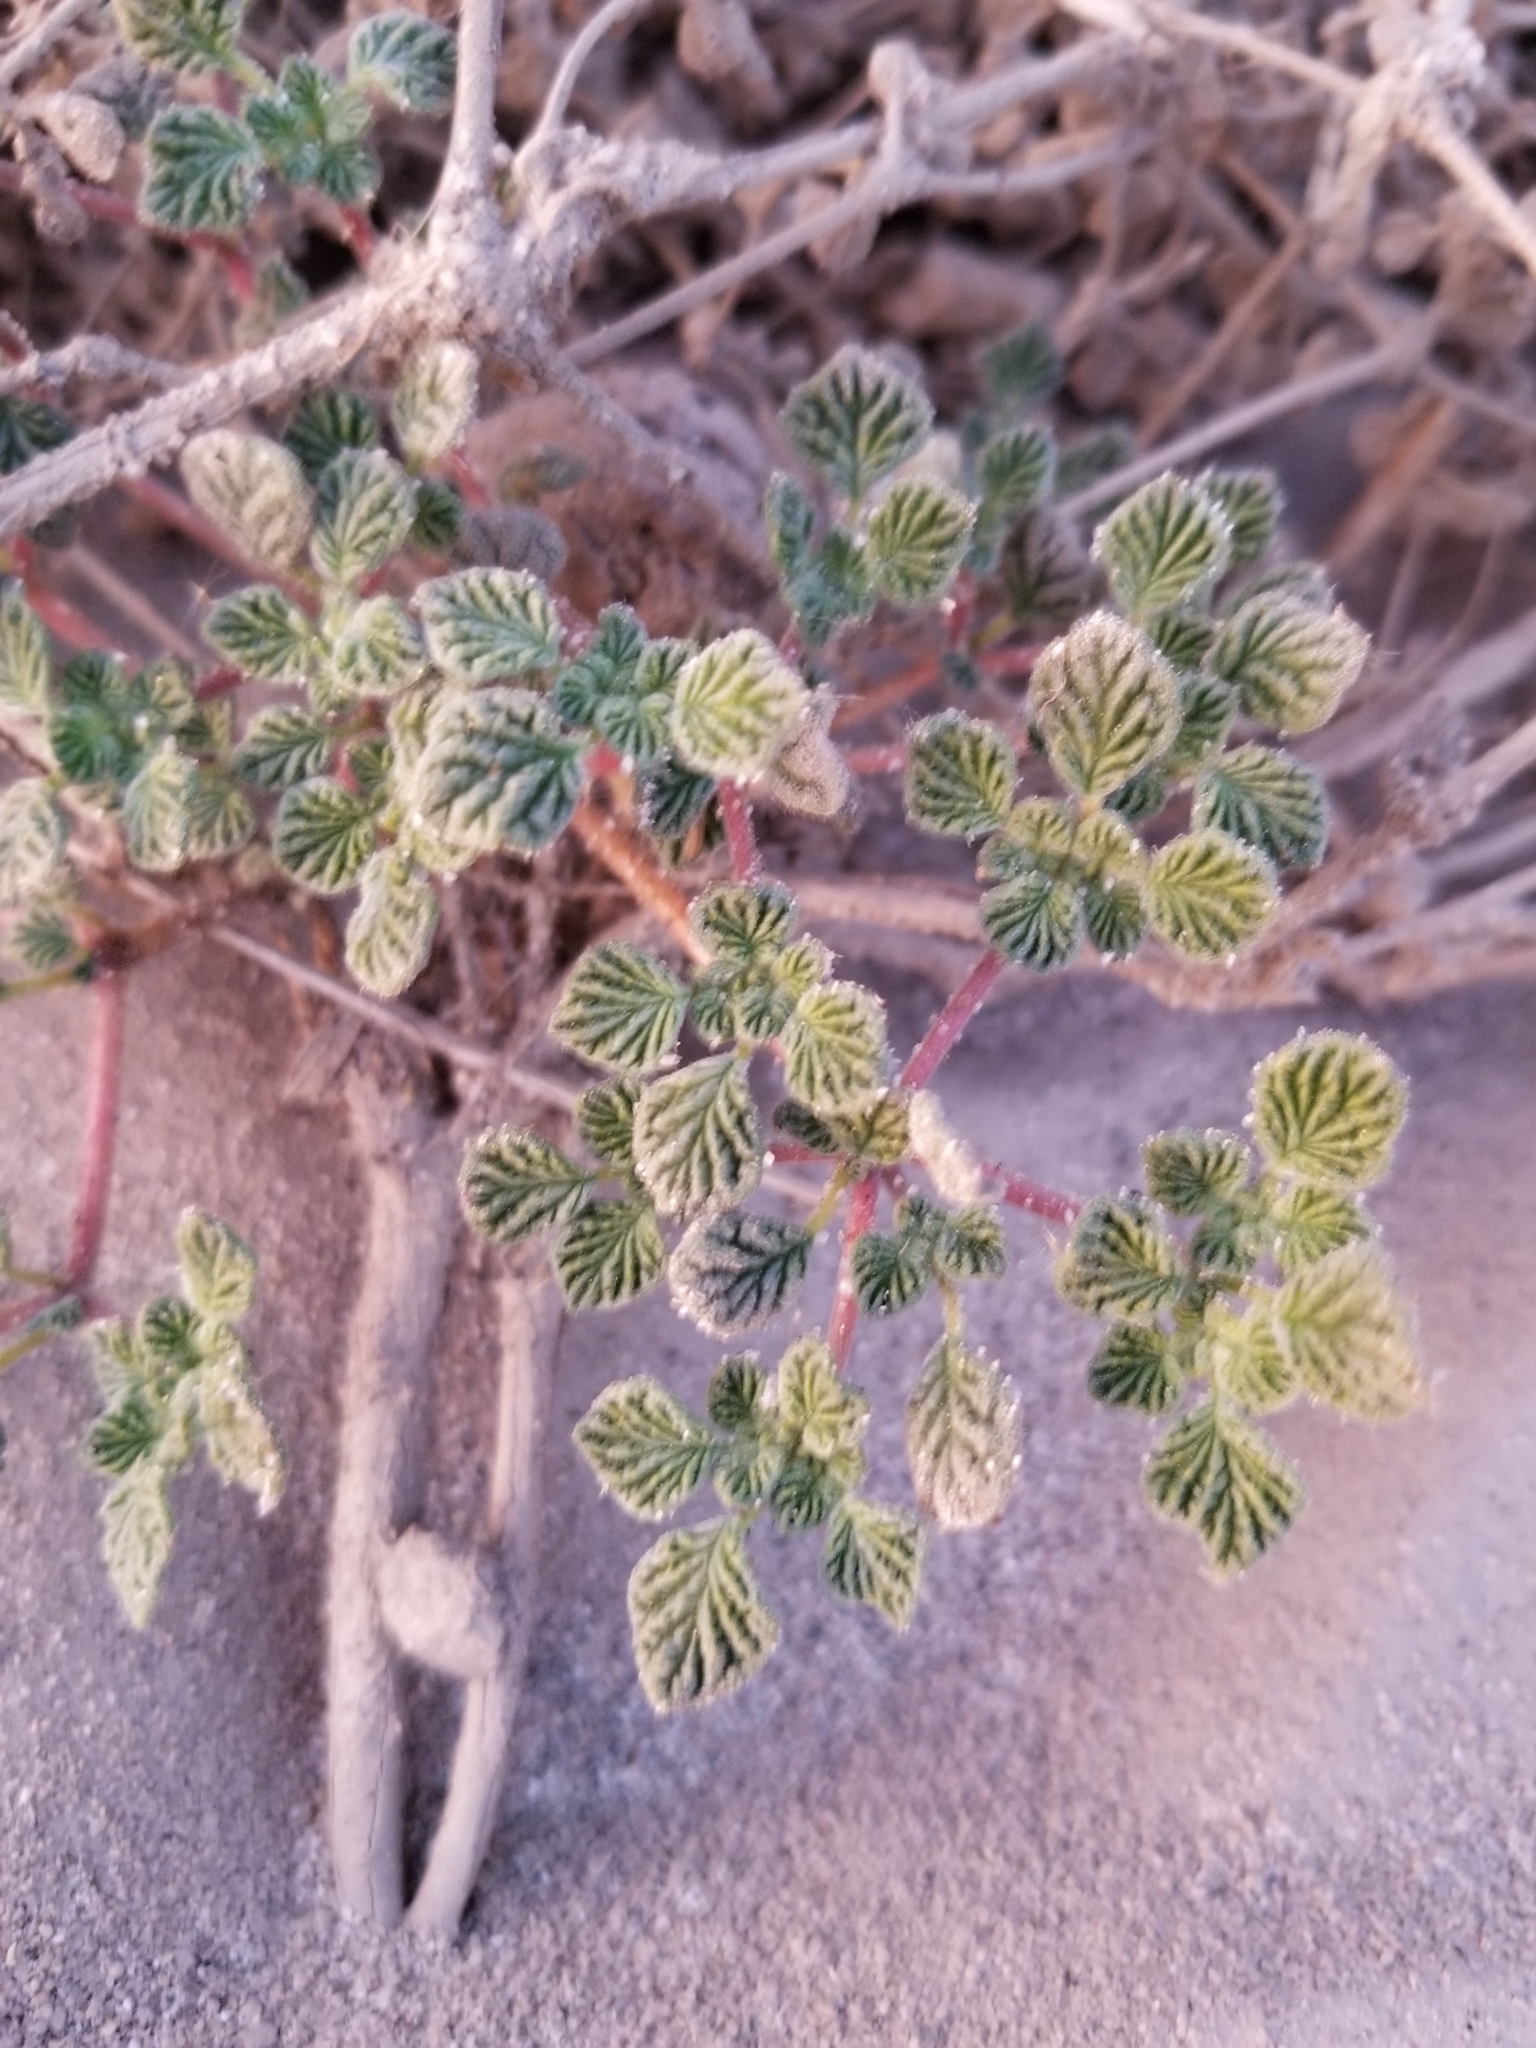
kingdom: Plantae
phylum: Tracheophyta
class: Magnoliopsida
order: Boraginales
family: Ehretiaceae
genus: Tiquilia
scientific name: Tiquilia plicata
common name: Fan-leaf tiquilia
